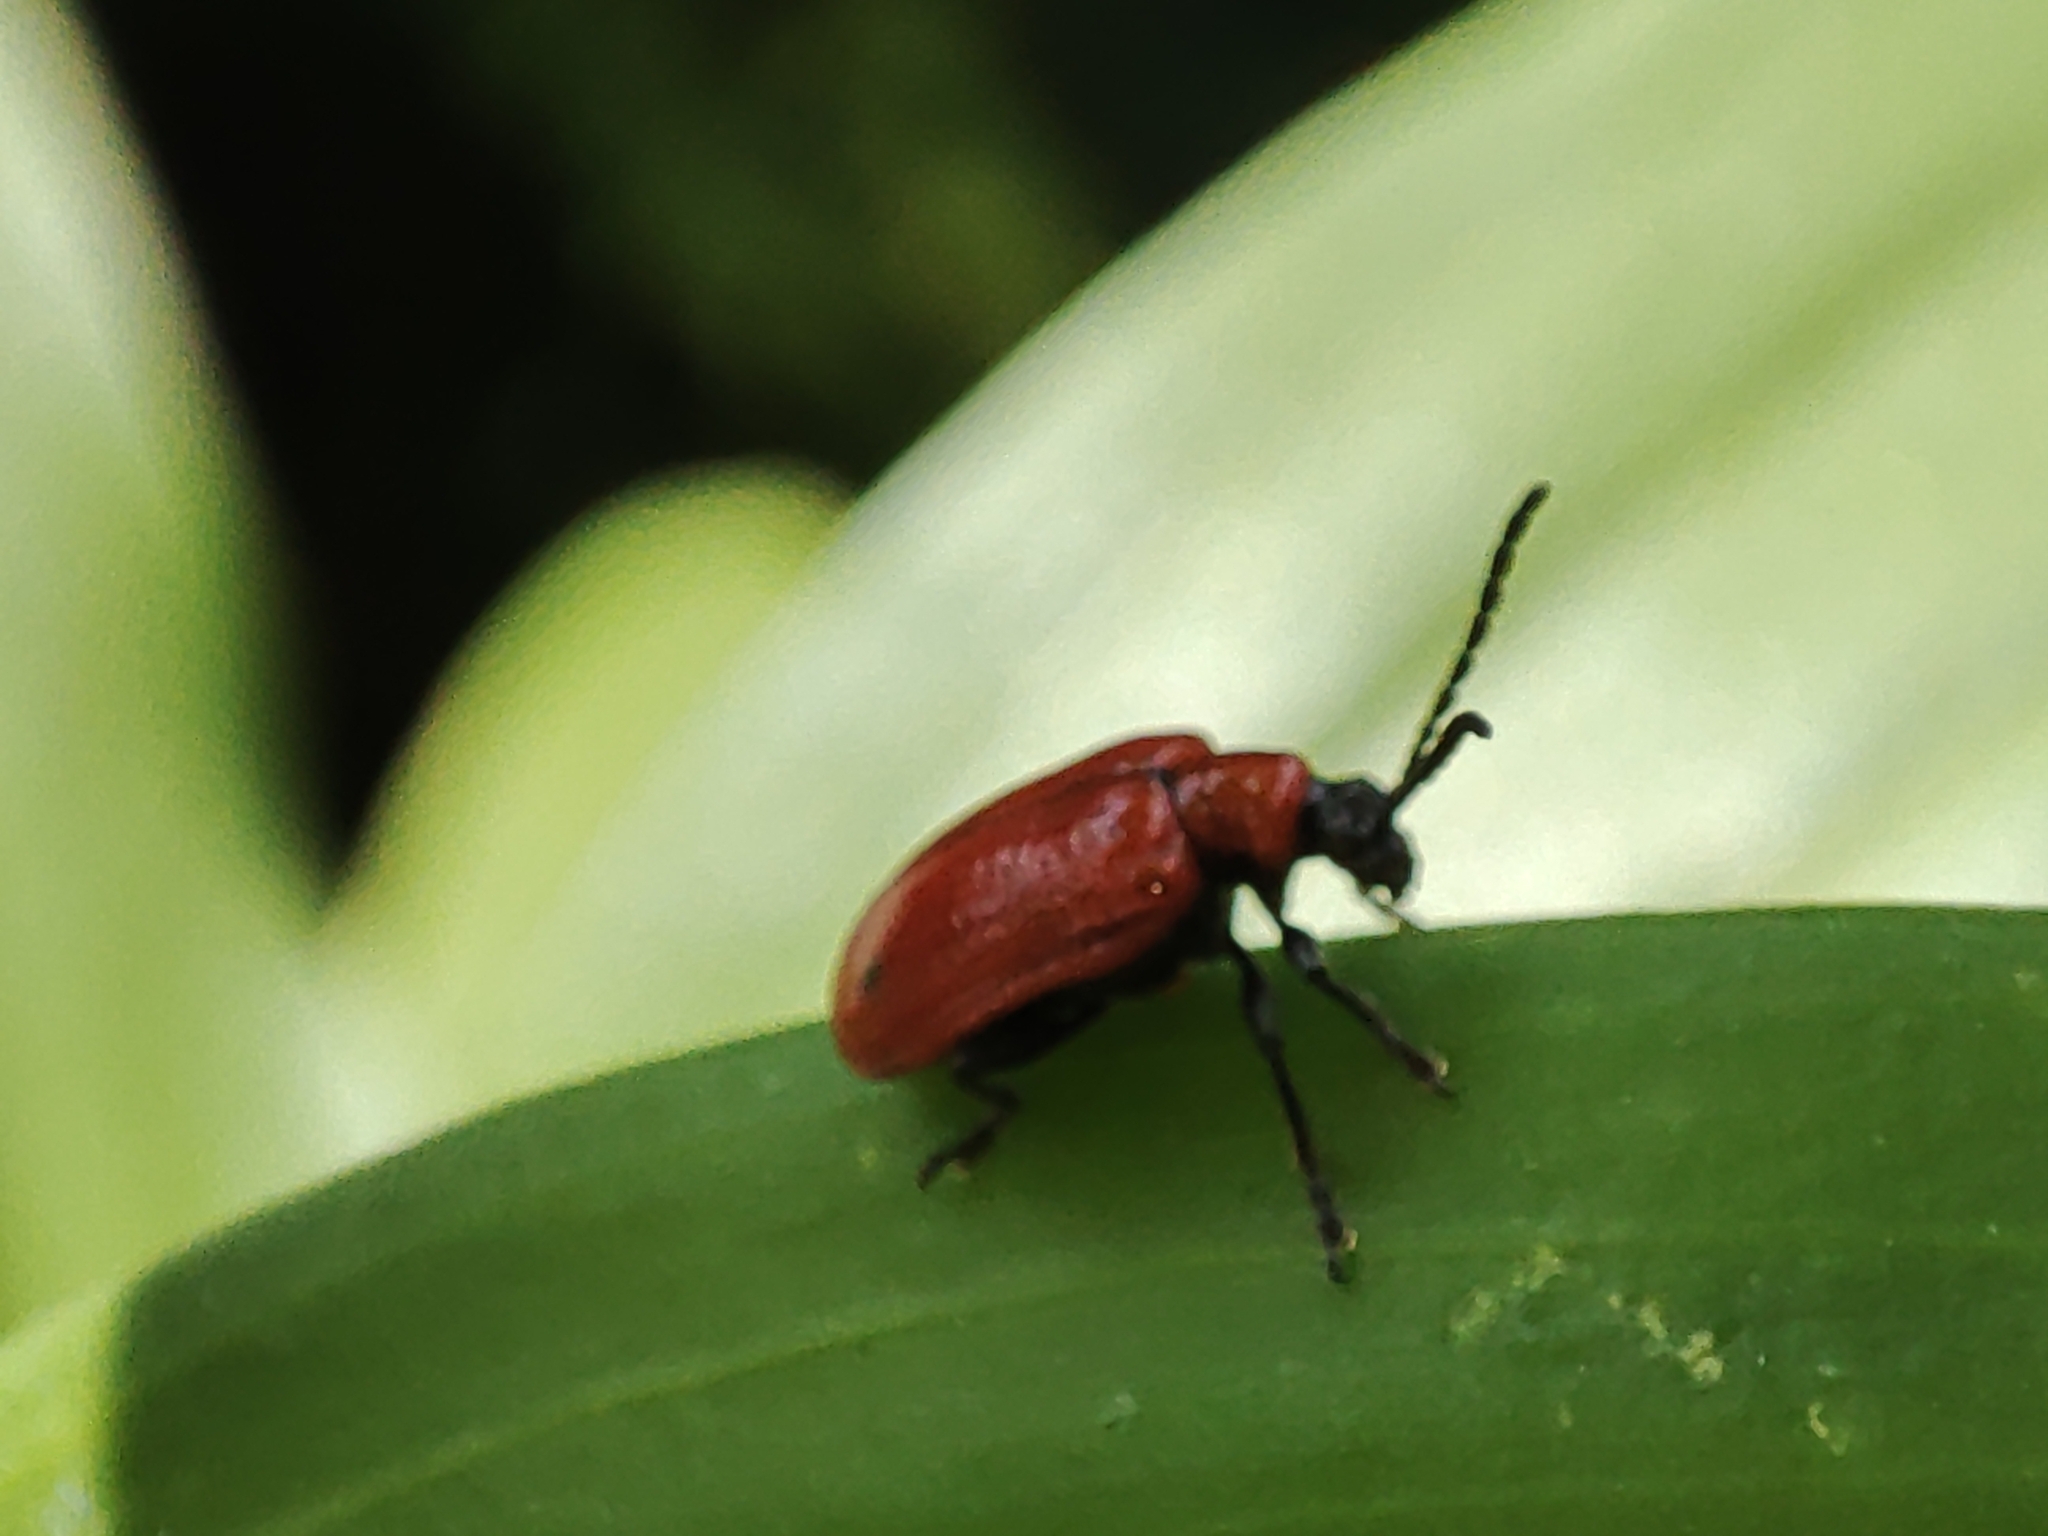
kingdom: Animalia
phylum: Arthropoda
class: Insecta
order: Coleoptera
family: Chrysomelidae
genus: Lilioceris
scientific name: Lilioceris lilii
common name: Lily beetle
